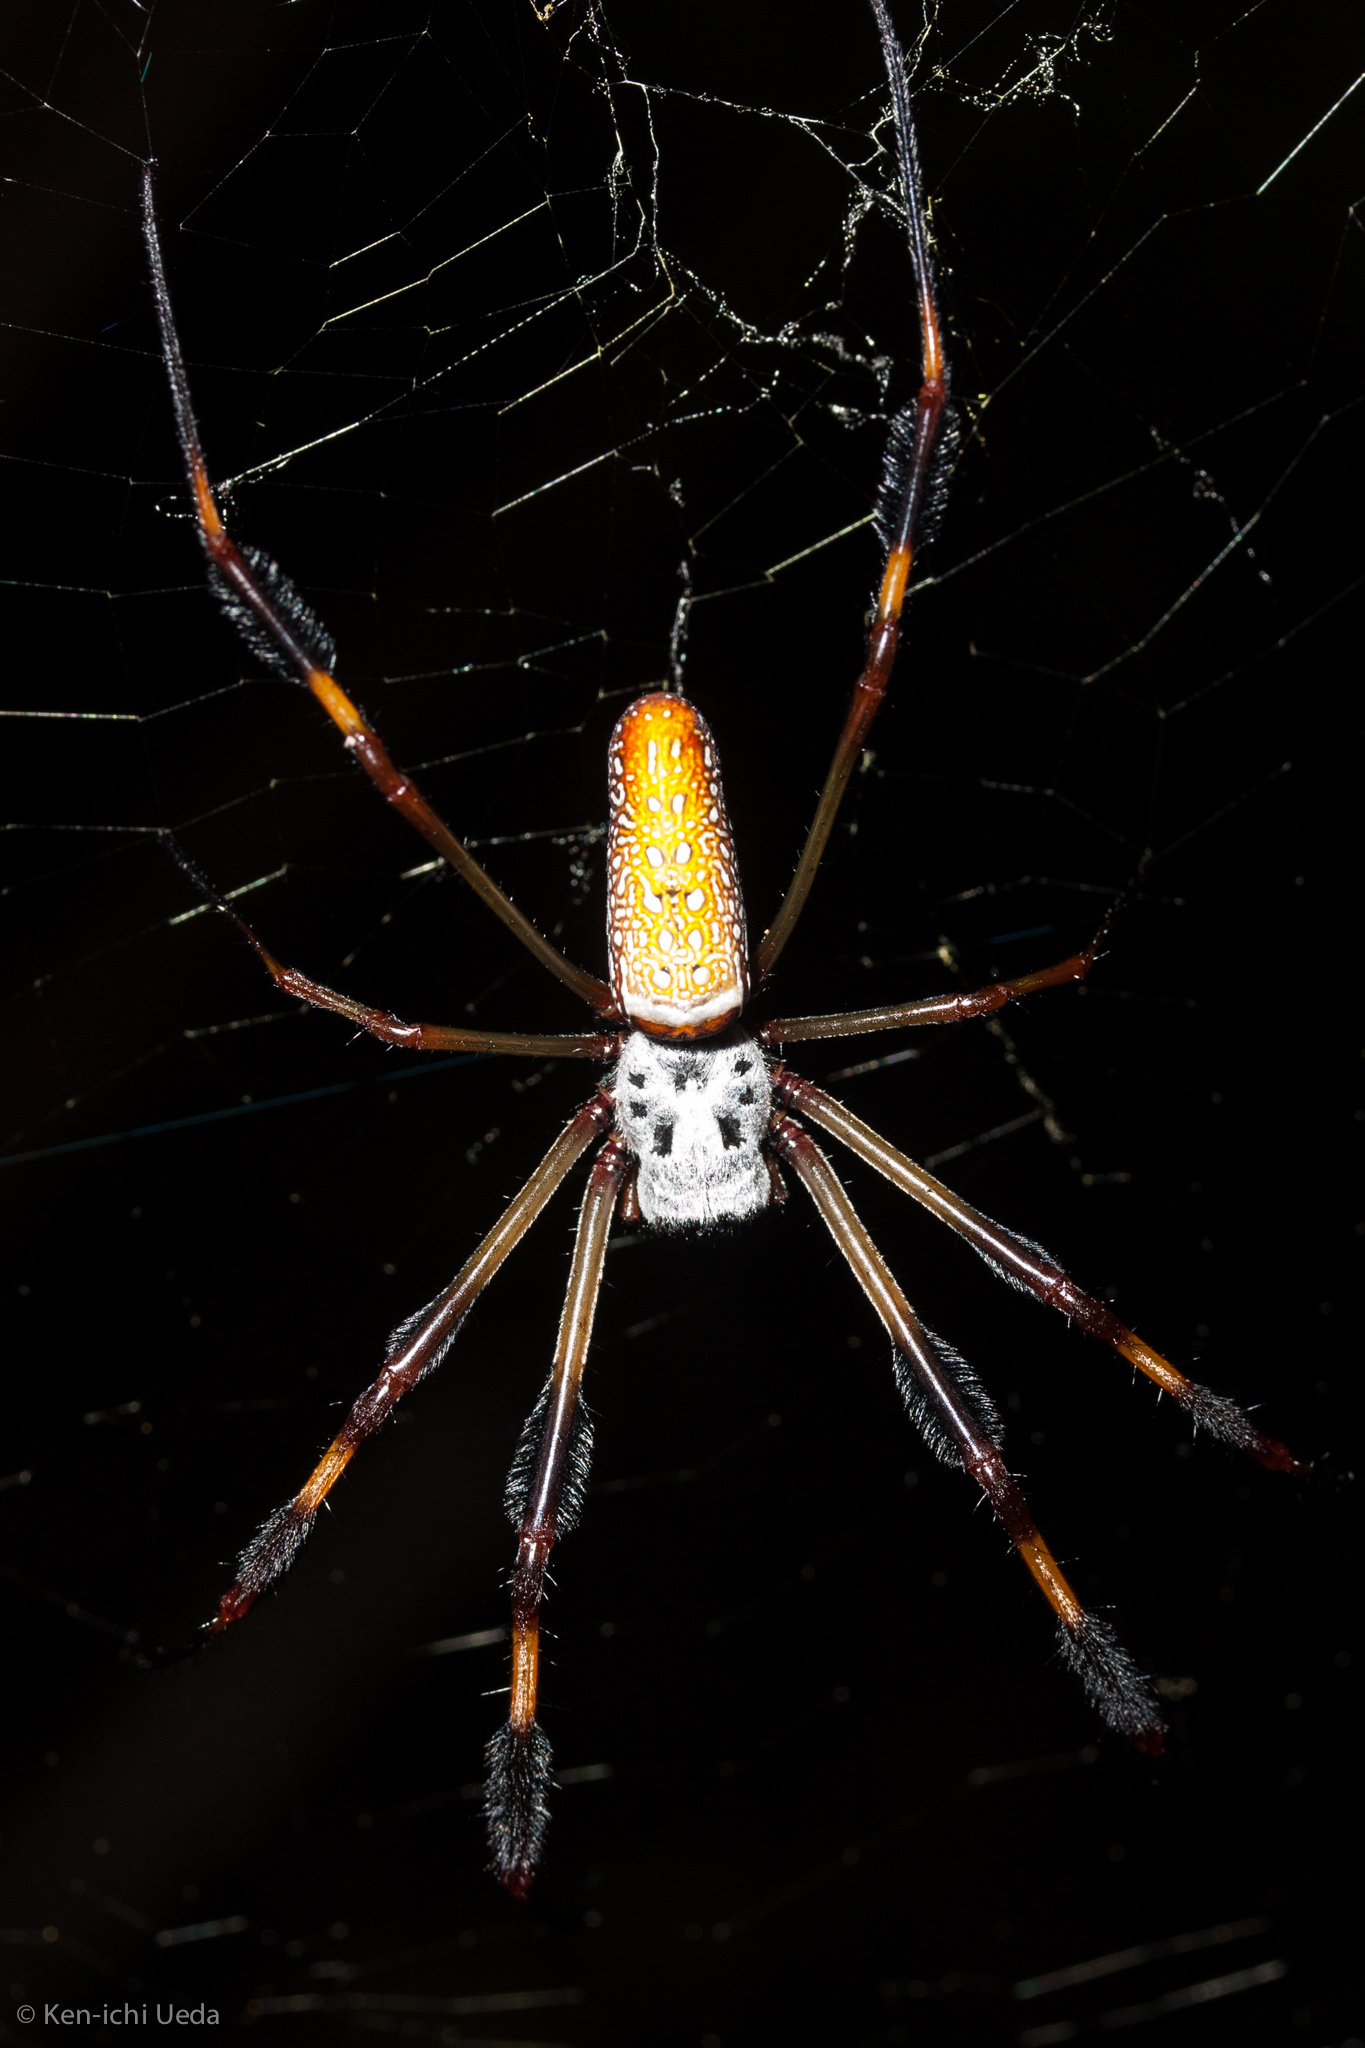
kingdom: Animalia
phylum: Arthropoda
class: Arachnida
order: Araneae
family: Araneidae
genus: Trichonephila
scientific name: Trichonephila clavipes
